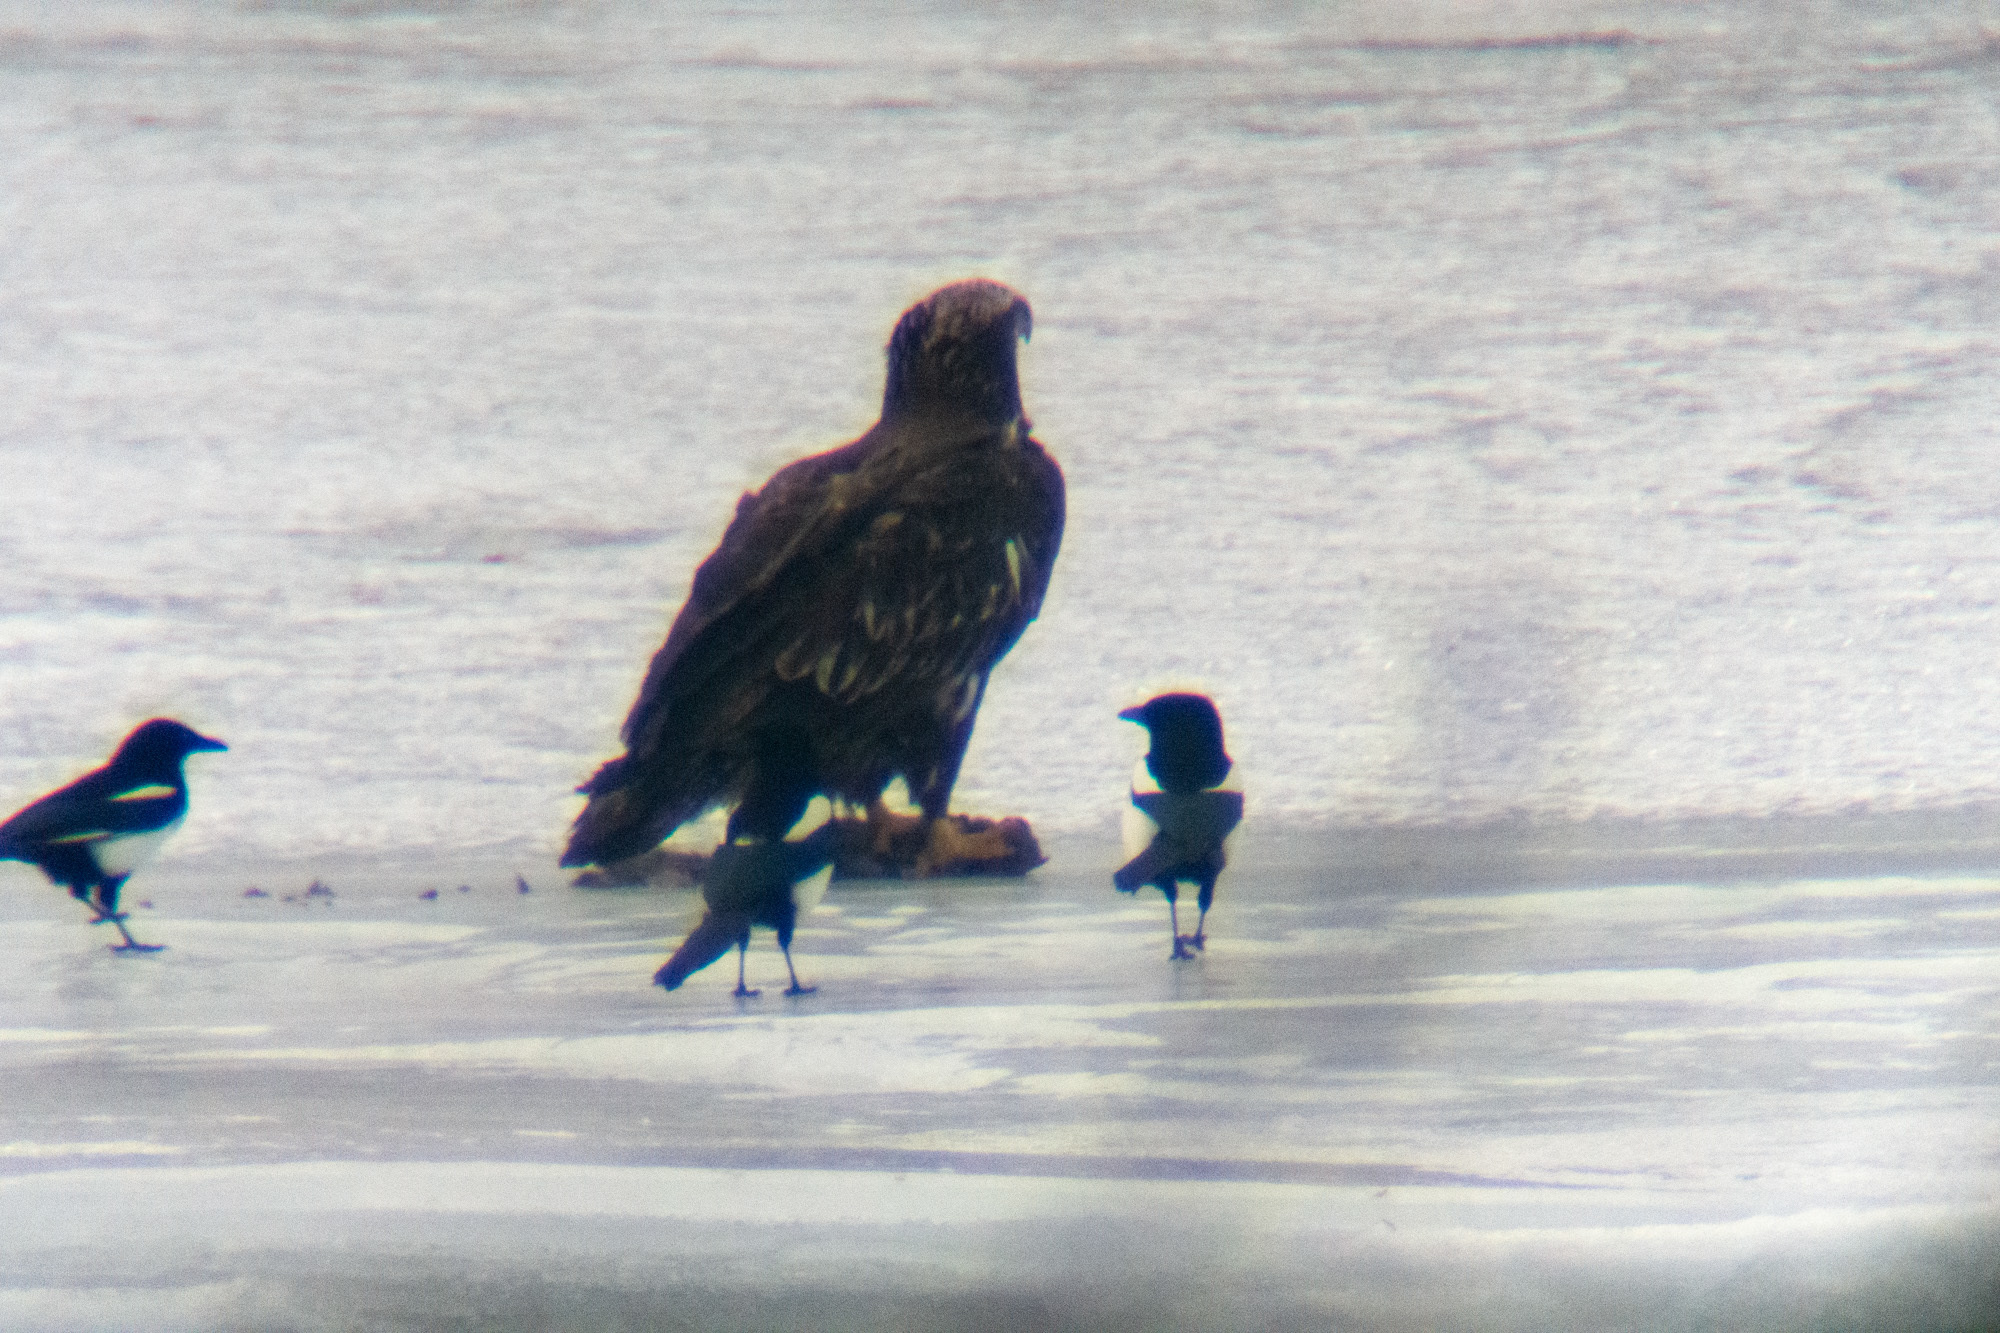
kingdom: Animalia
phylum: Chordata
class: Aves
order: Accipitriformes
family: Accipitridae
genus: Haliaeetus
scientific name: Haliaeetus leucocephalus
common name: Bald eagle
